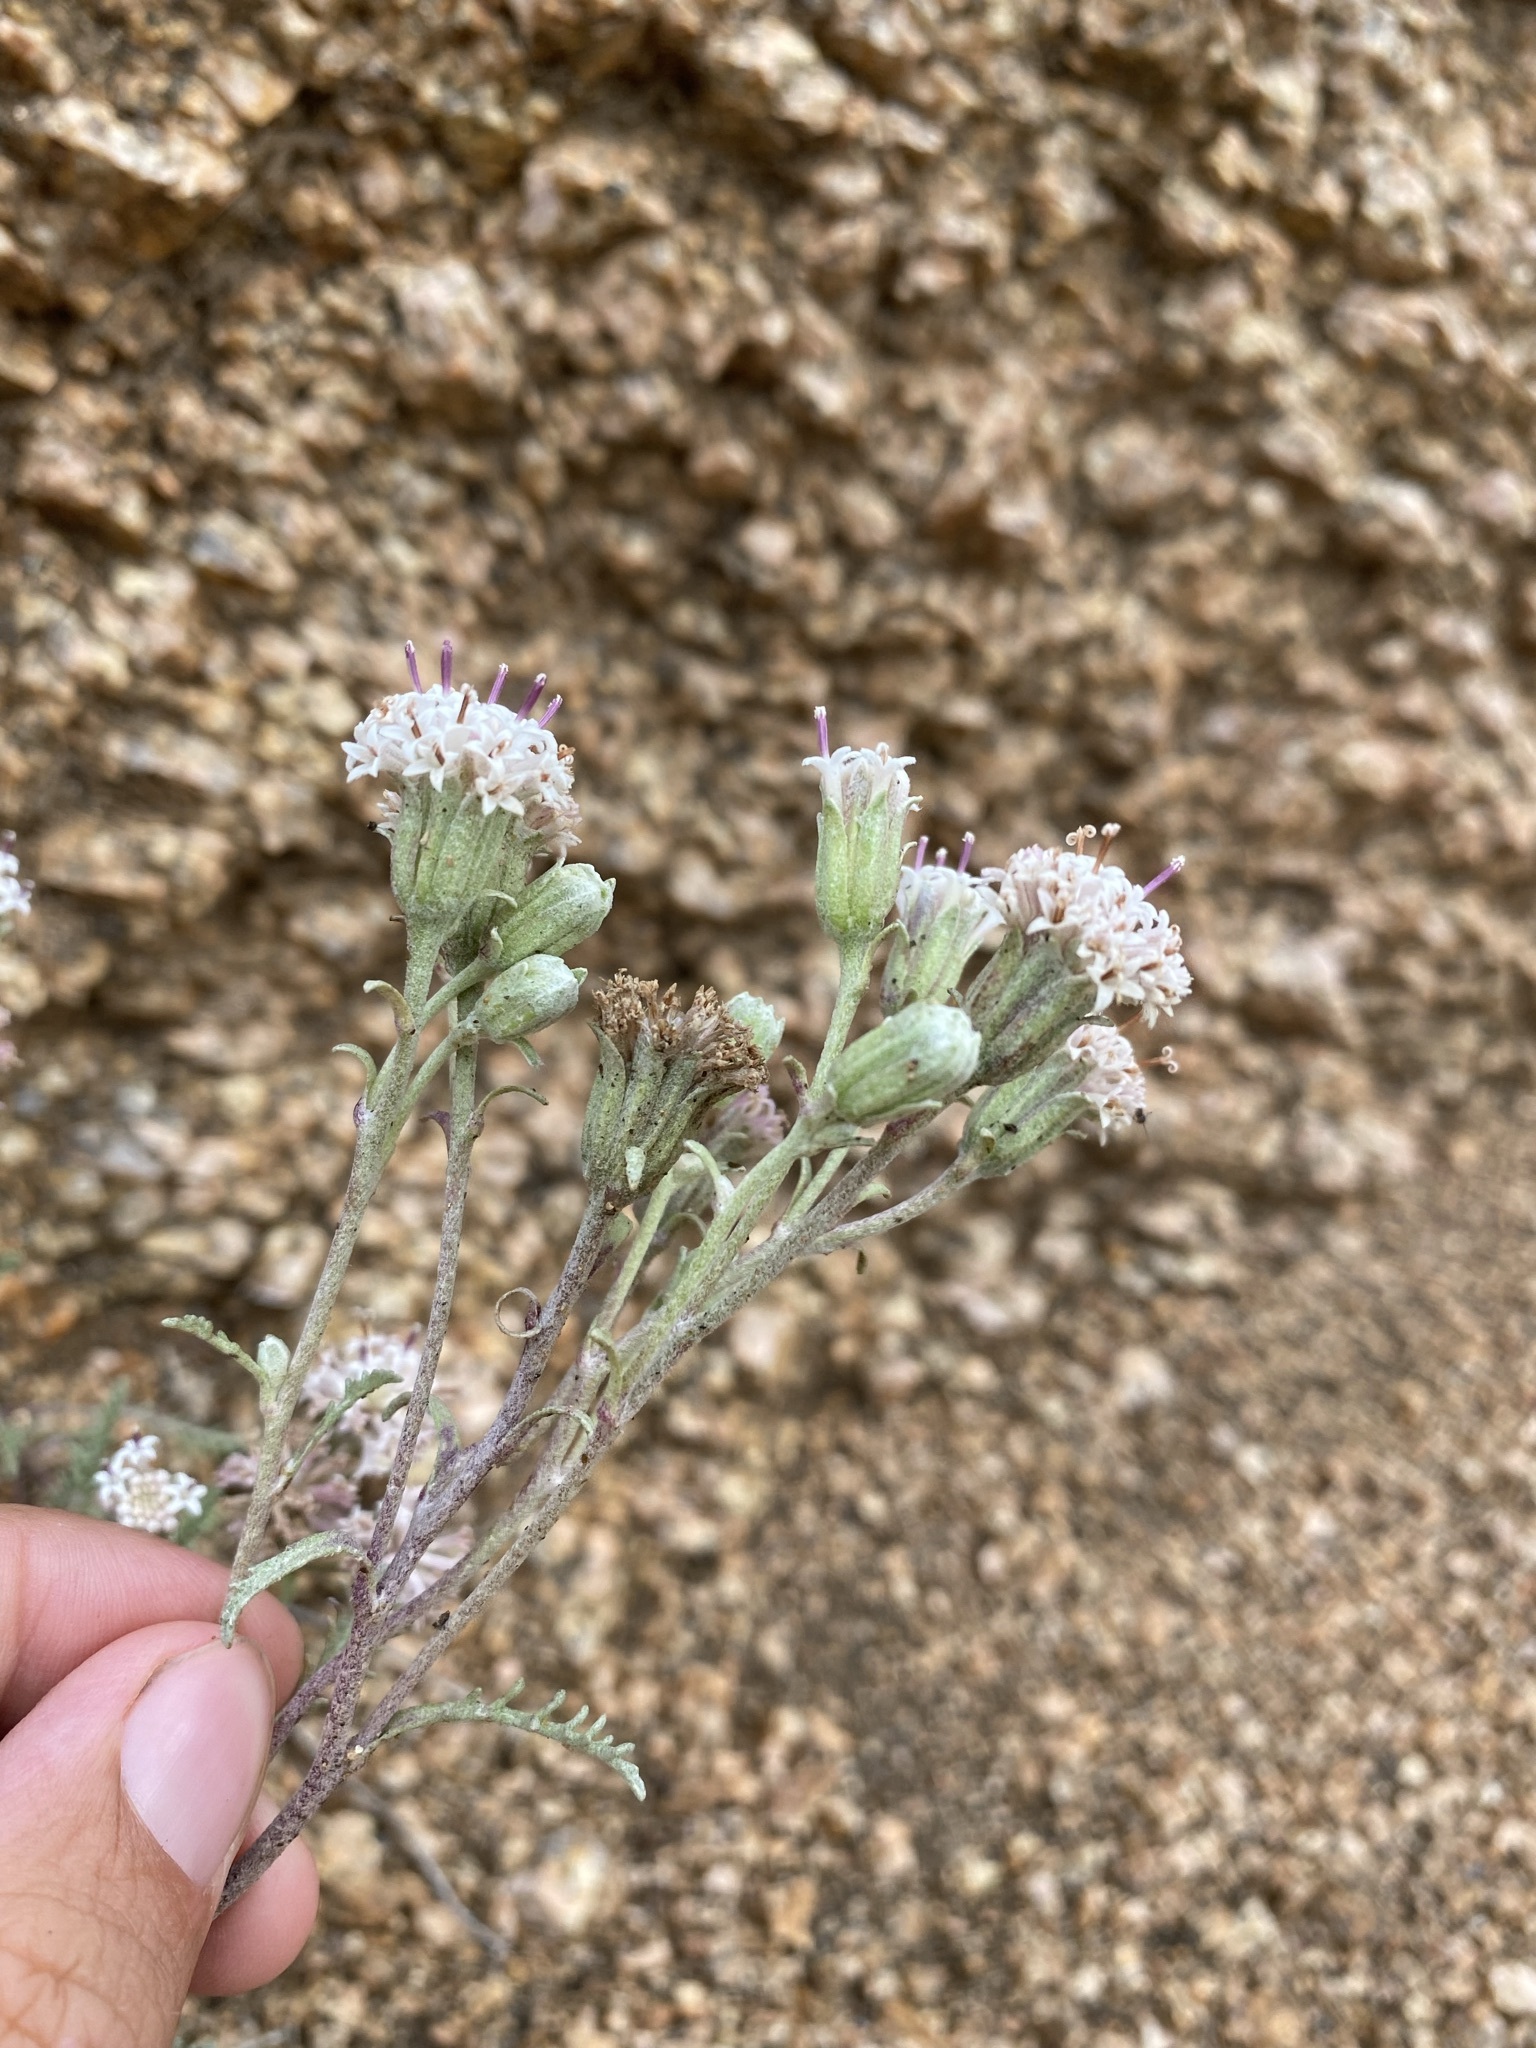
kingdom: Plantae
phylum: Tracheophyta
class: Magnoliopsida
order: Asterales
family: Asteraceae
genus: Chaenactis
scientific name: Chaenactis douglasii
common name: Hoary pincushion
